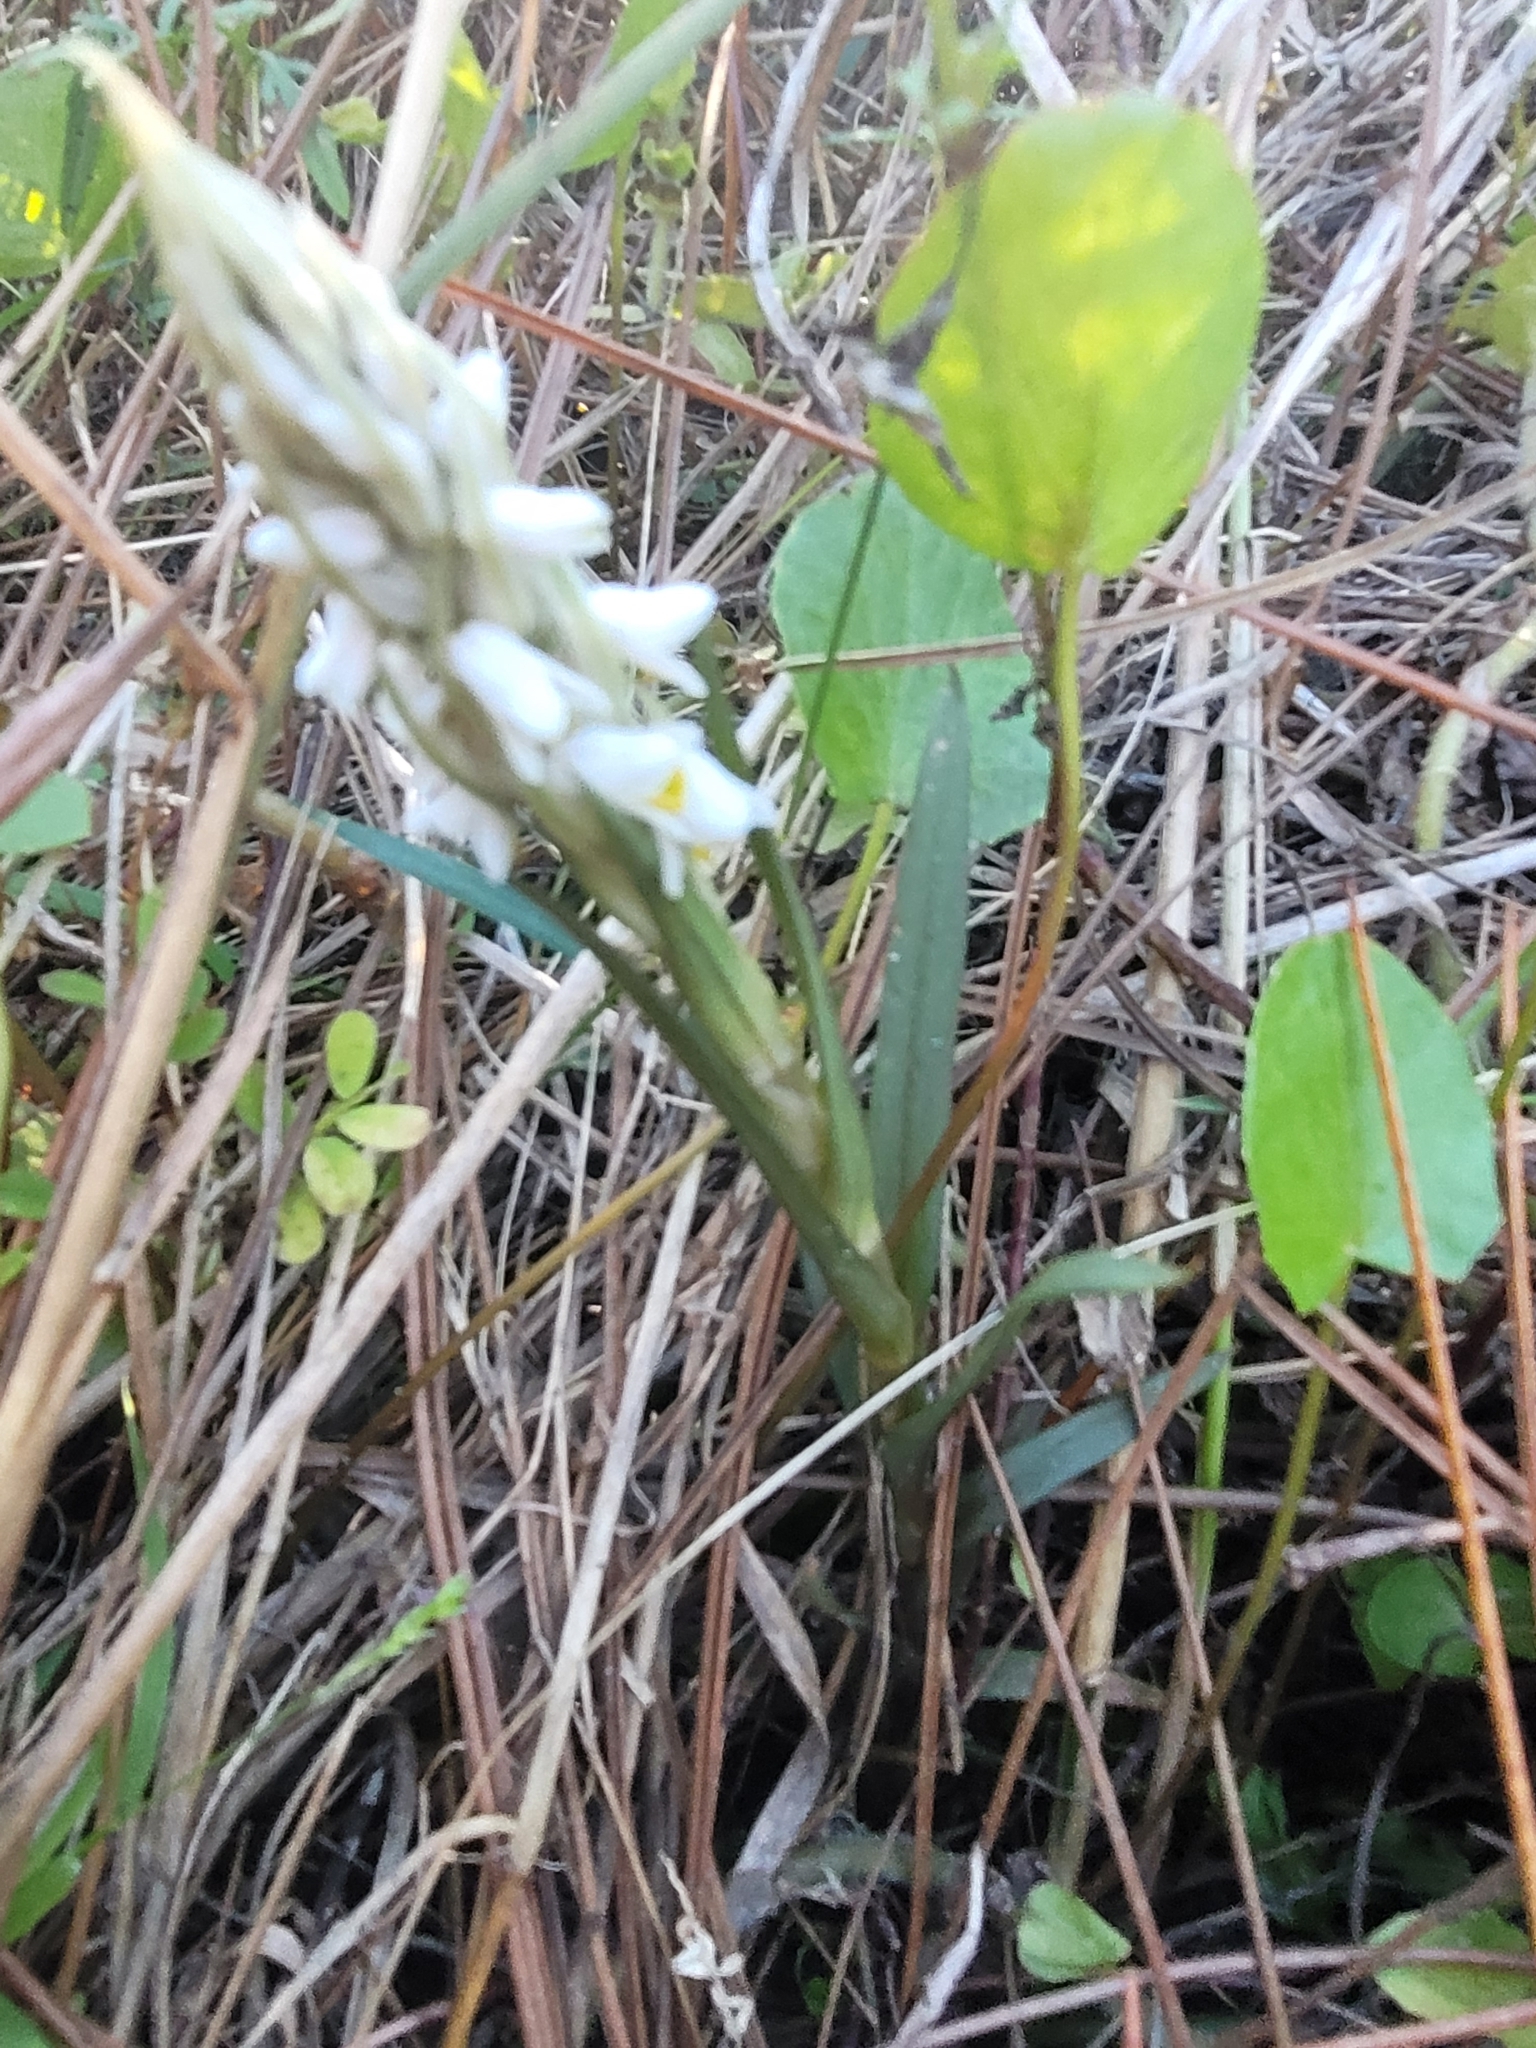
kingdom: Plantae
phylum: Tracheophyta
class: Liliopsida
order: Asparagales
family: Orchidaceae
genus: Zeuxine
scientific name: Zeuxine strateumatica
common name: Soldier's orchid
